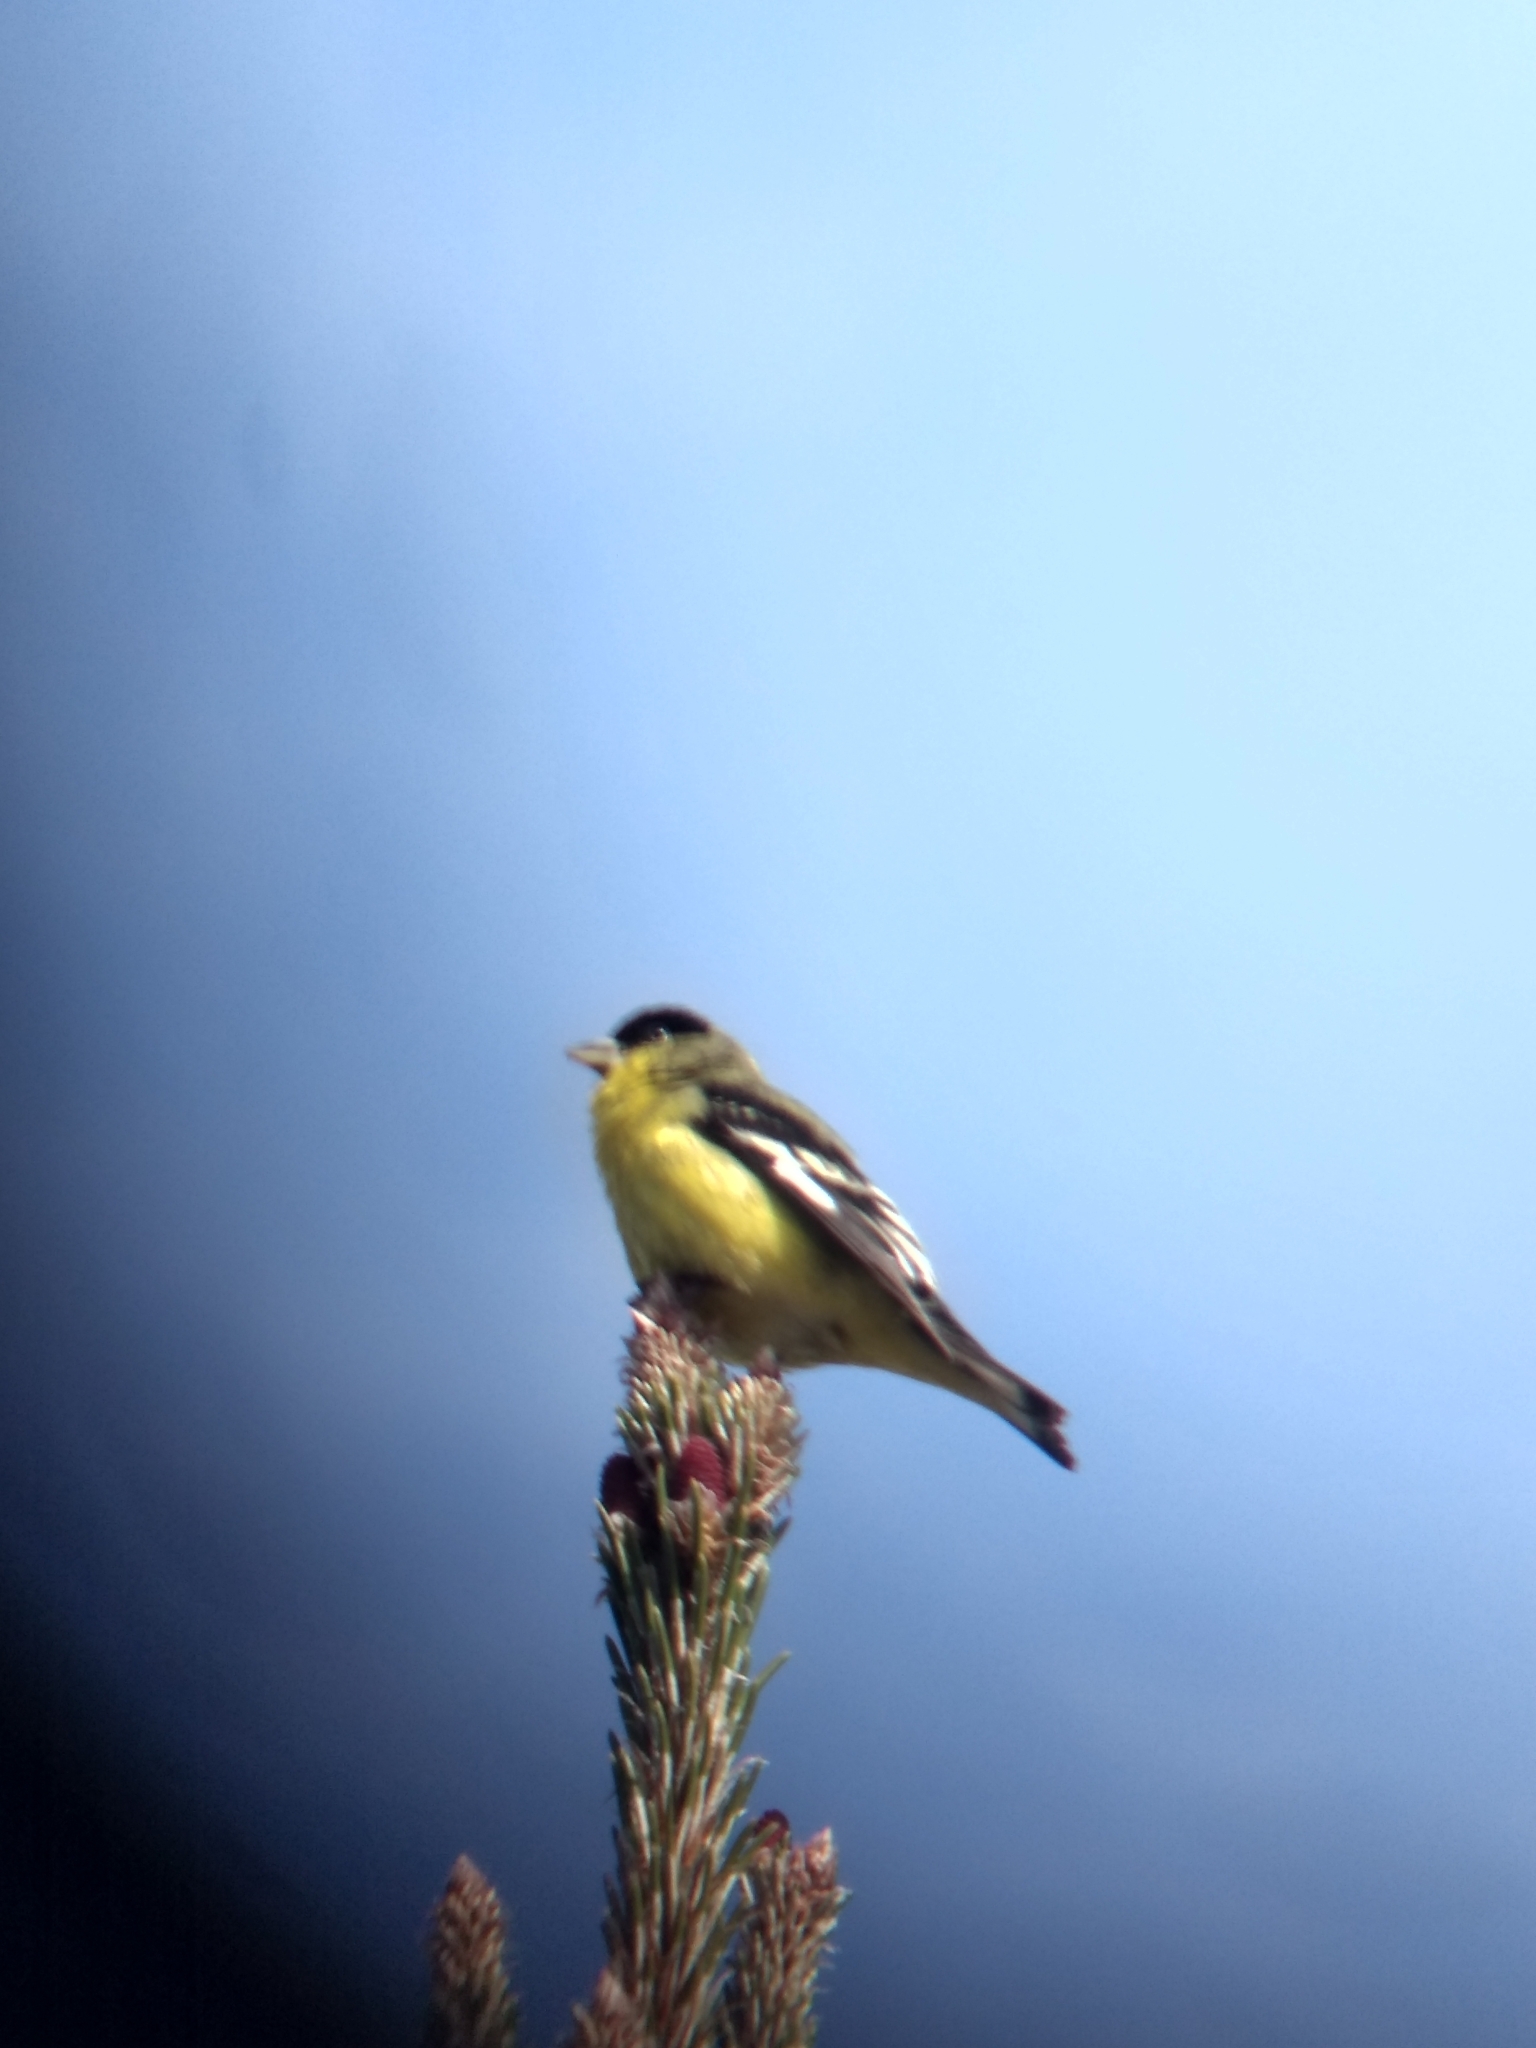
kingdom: Animalia
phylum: Chordata
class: Aves
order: Passeriformes
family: Fringillidae
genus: Spinus
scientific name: Spinus psaltria
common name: Lesser goldfinch
